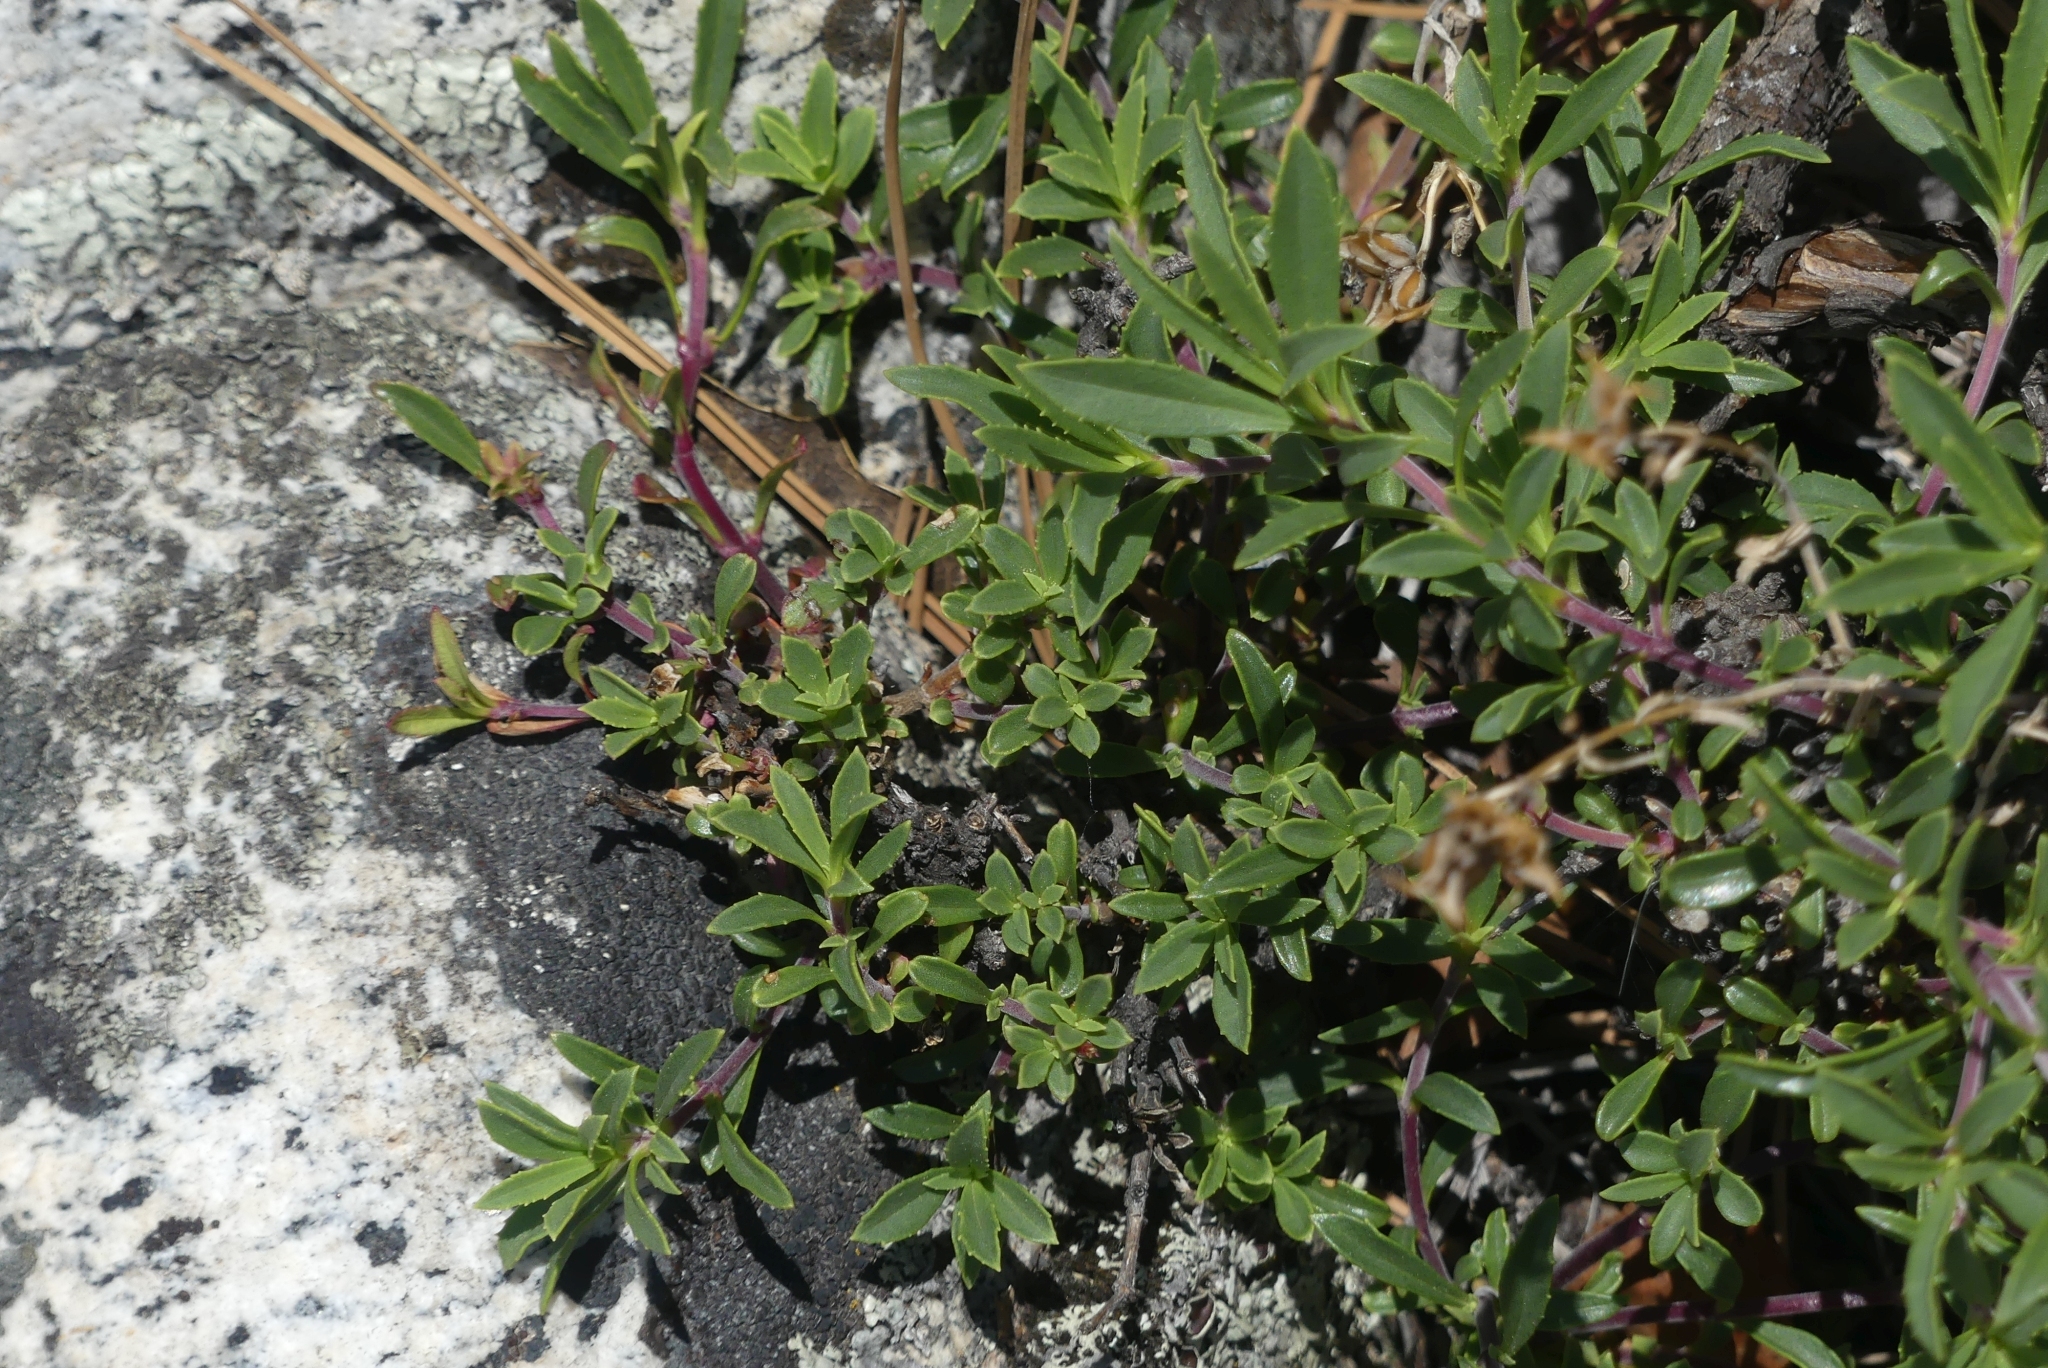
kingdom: Plantae
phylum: Tracheophyta
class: Magnoliopsida
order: Lamiales
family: Plantaginaceae
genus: Penstemon
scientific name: Penstemon fruticosus
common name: Bush penstemon
